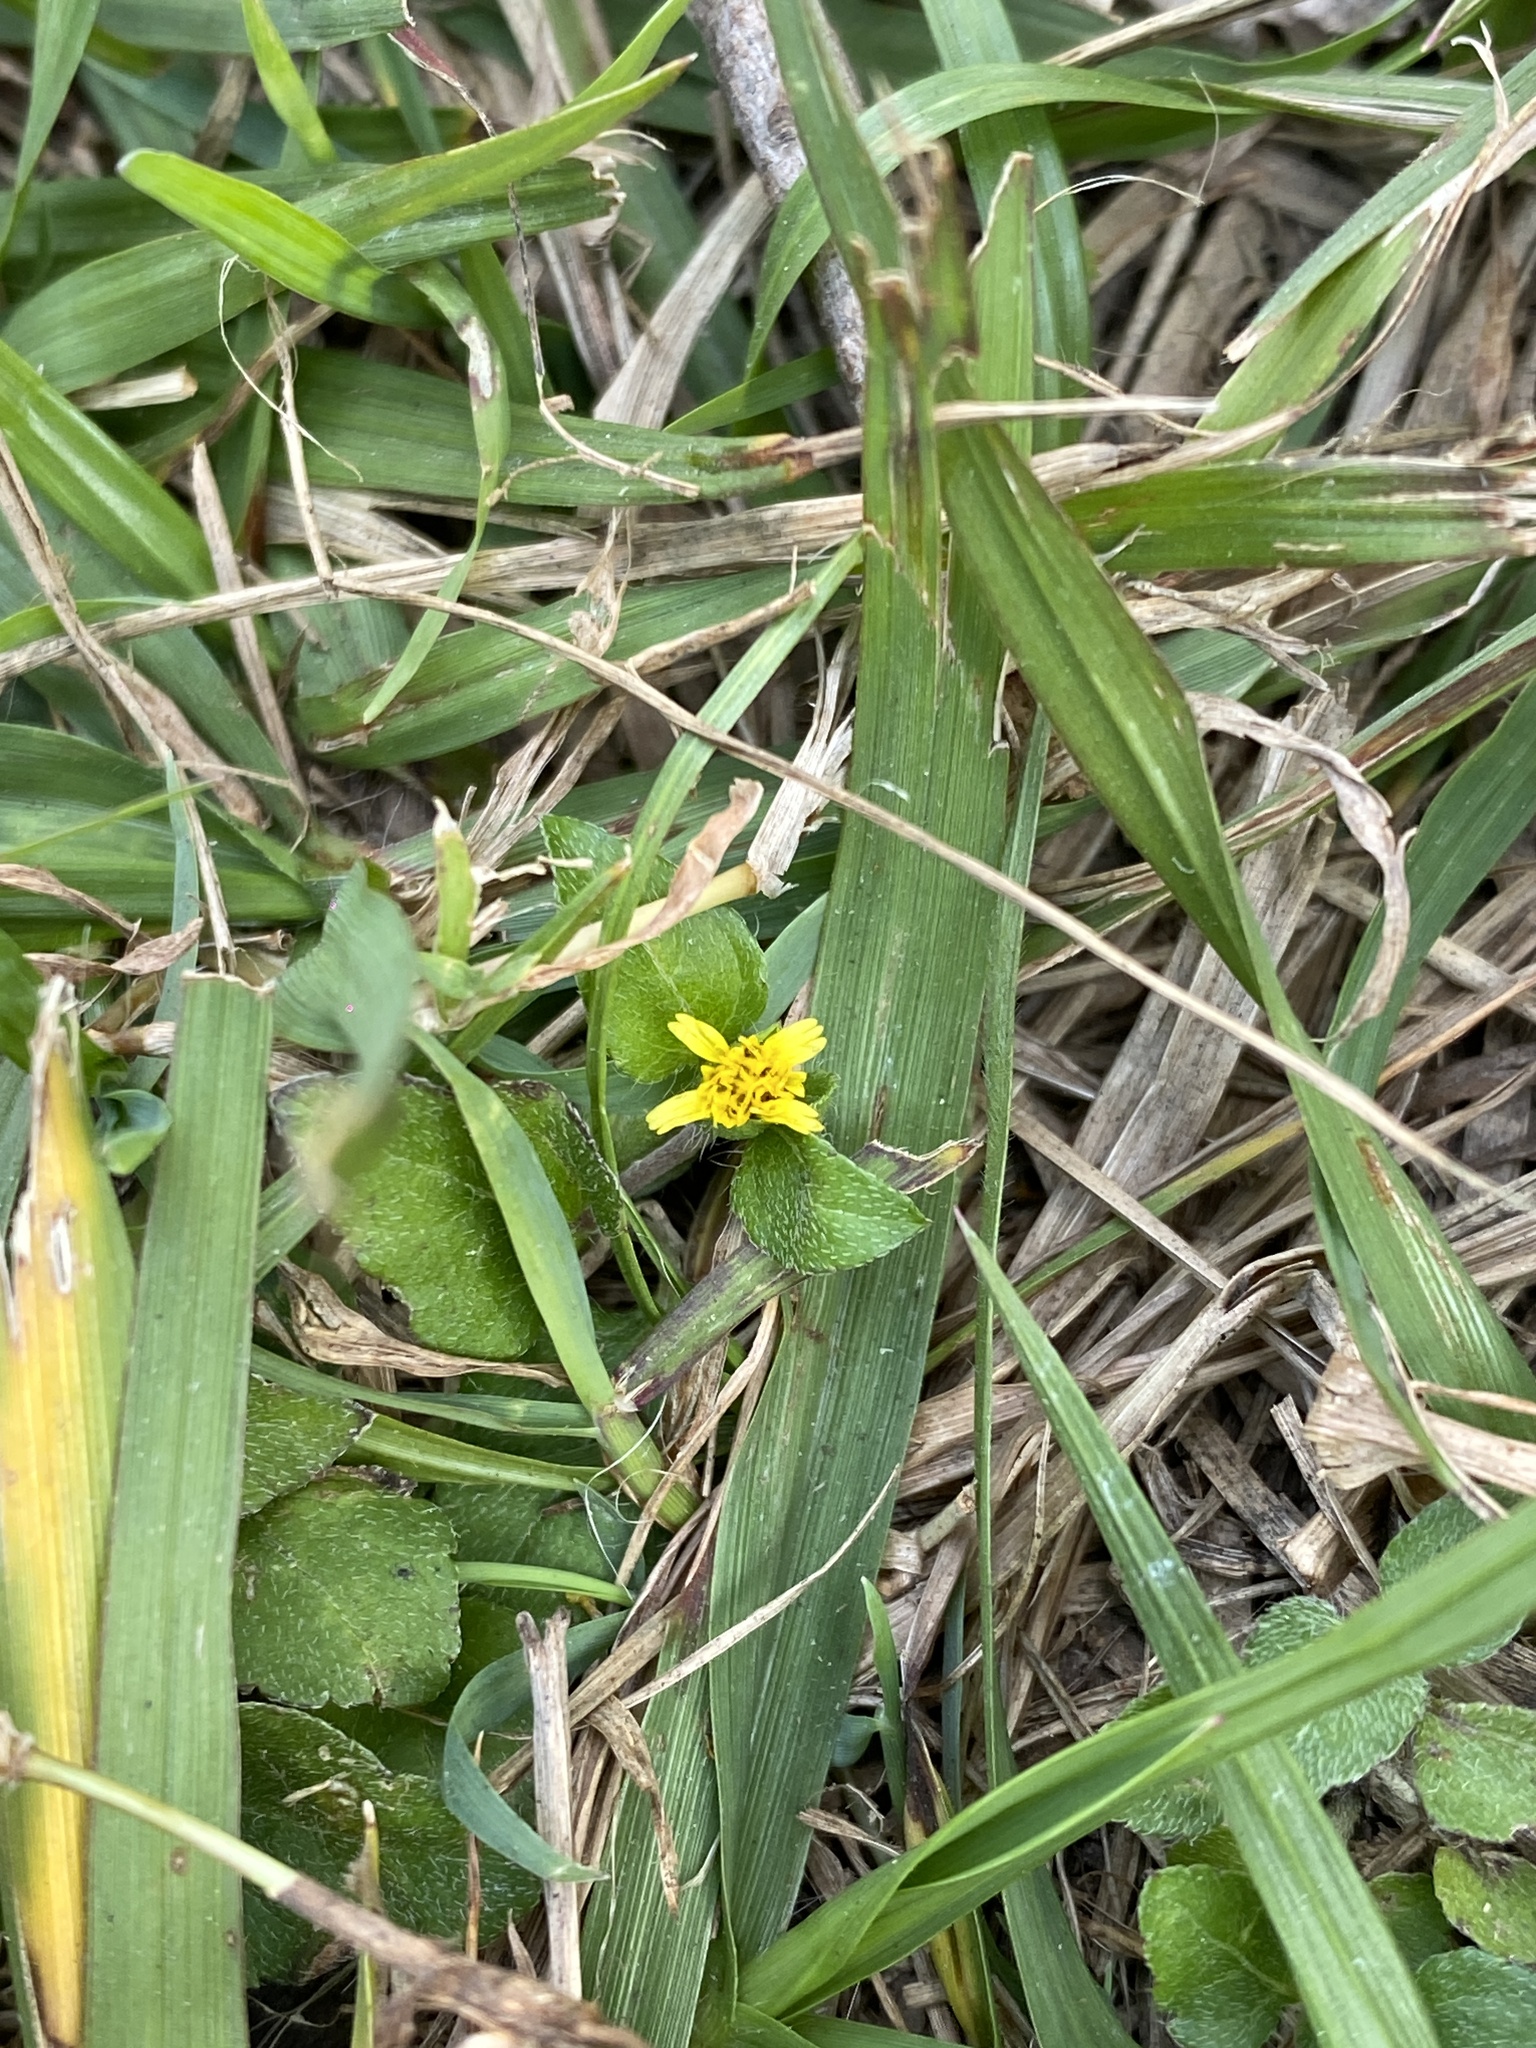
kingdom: Plantae
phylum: Tracheophyta
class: Magnoliopsida
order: Asterales
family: Asteraceae
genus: Calyptocarpus
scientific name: Calyptocarpus vialis
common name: Straggler daisy
